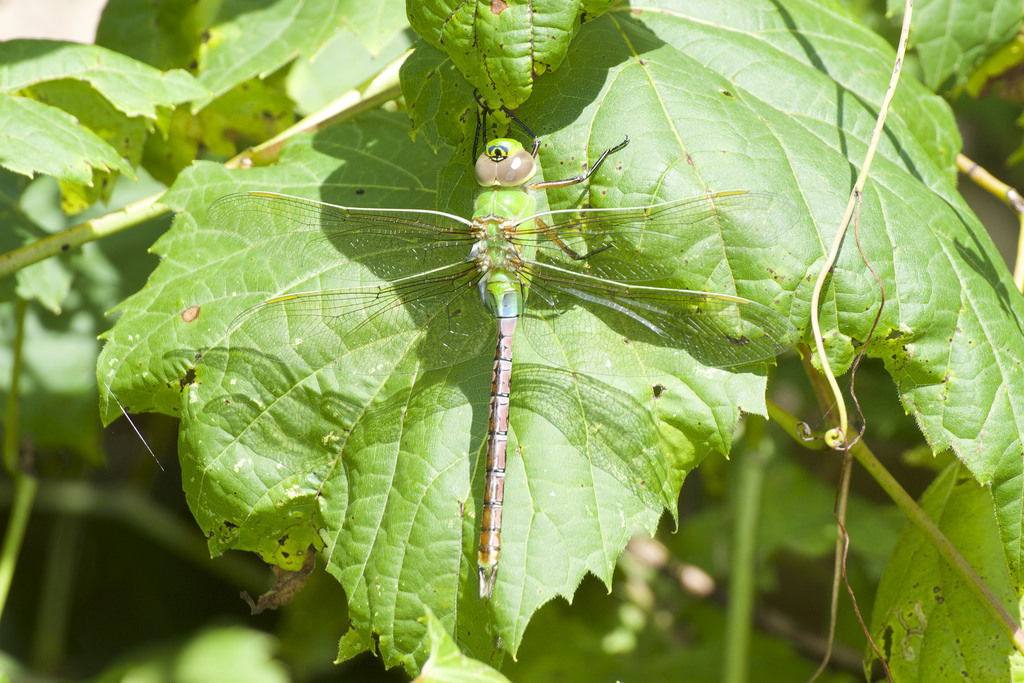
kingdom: Animalia
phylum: Arthropoda
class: Insecta
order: Odonata
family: Aeshnidae
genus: Anax
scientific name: Anax junius
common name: Common green darner
